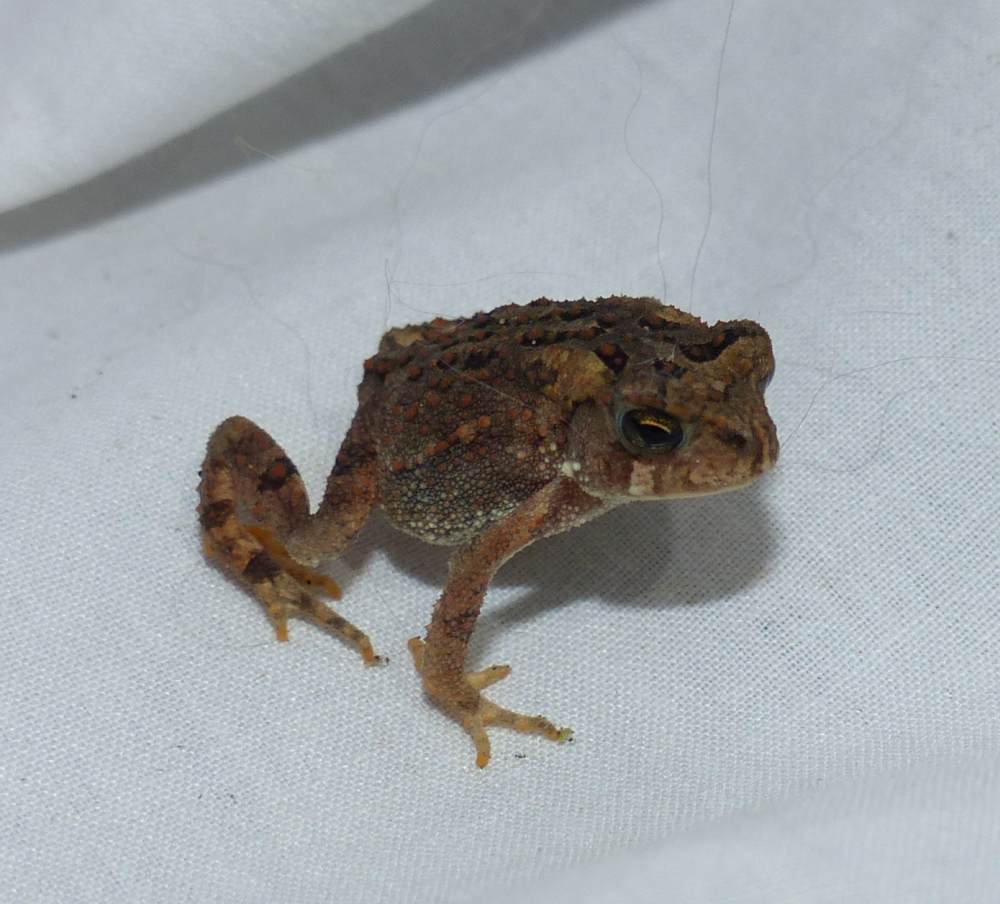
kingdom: Animalia
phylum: Chordata
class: Amphibia
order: Anura
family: Bufonidae
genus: Anaxyrus
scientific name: Anaxyrus americanus
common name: American toad
